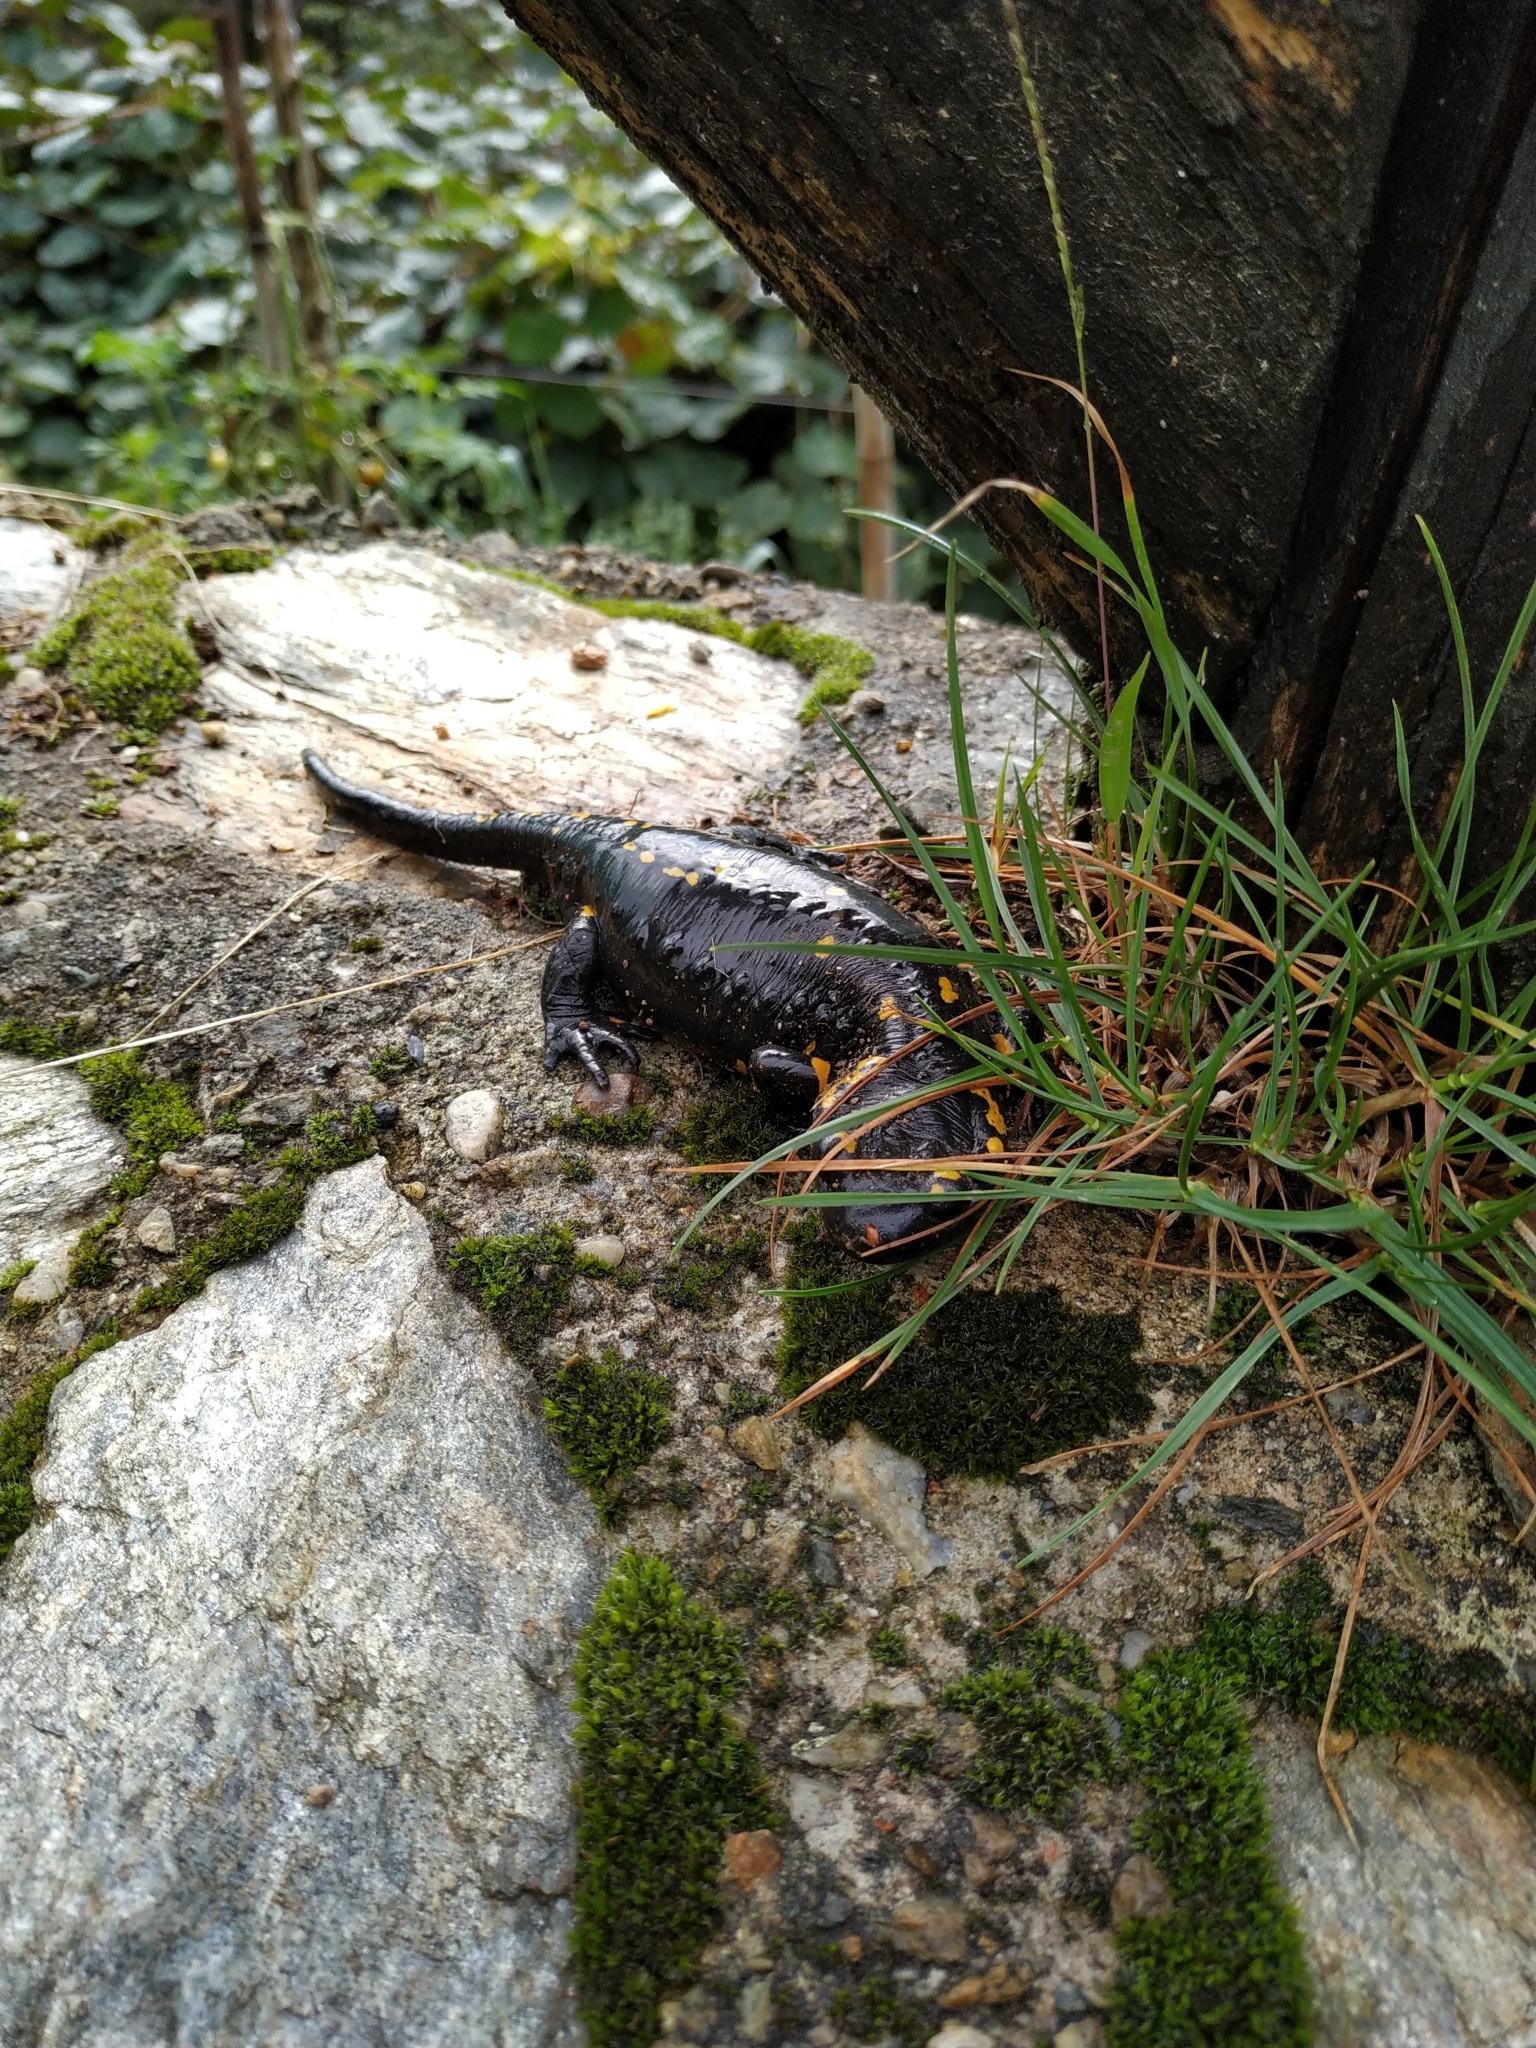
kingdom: Animalia
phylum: Chordata
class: Amphibia
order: Caudata
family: Salamandridae
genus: Salamandra
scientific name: Salamandra salamandra
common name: Fire salamander
